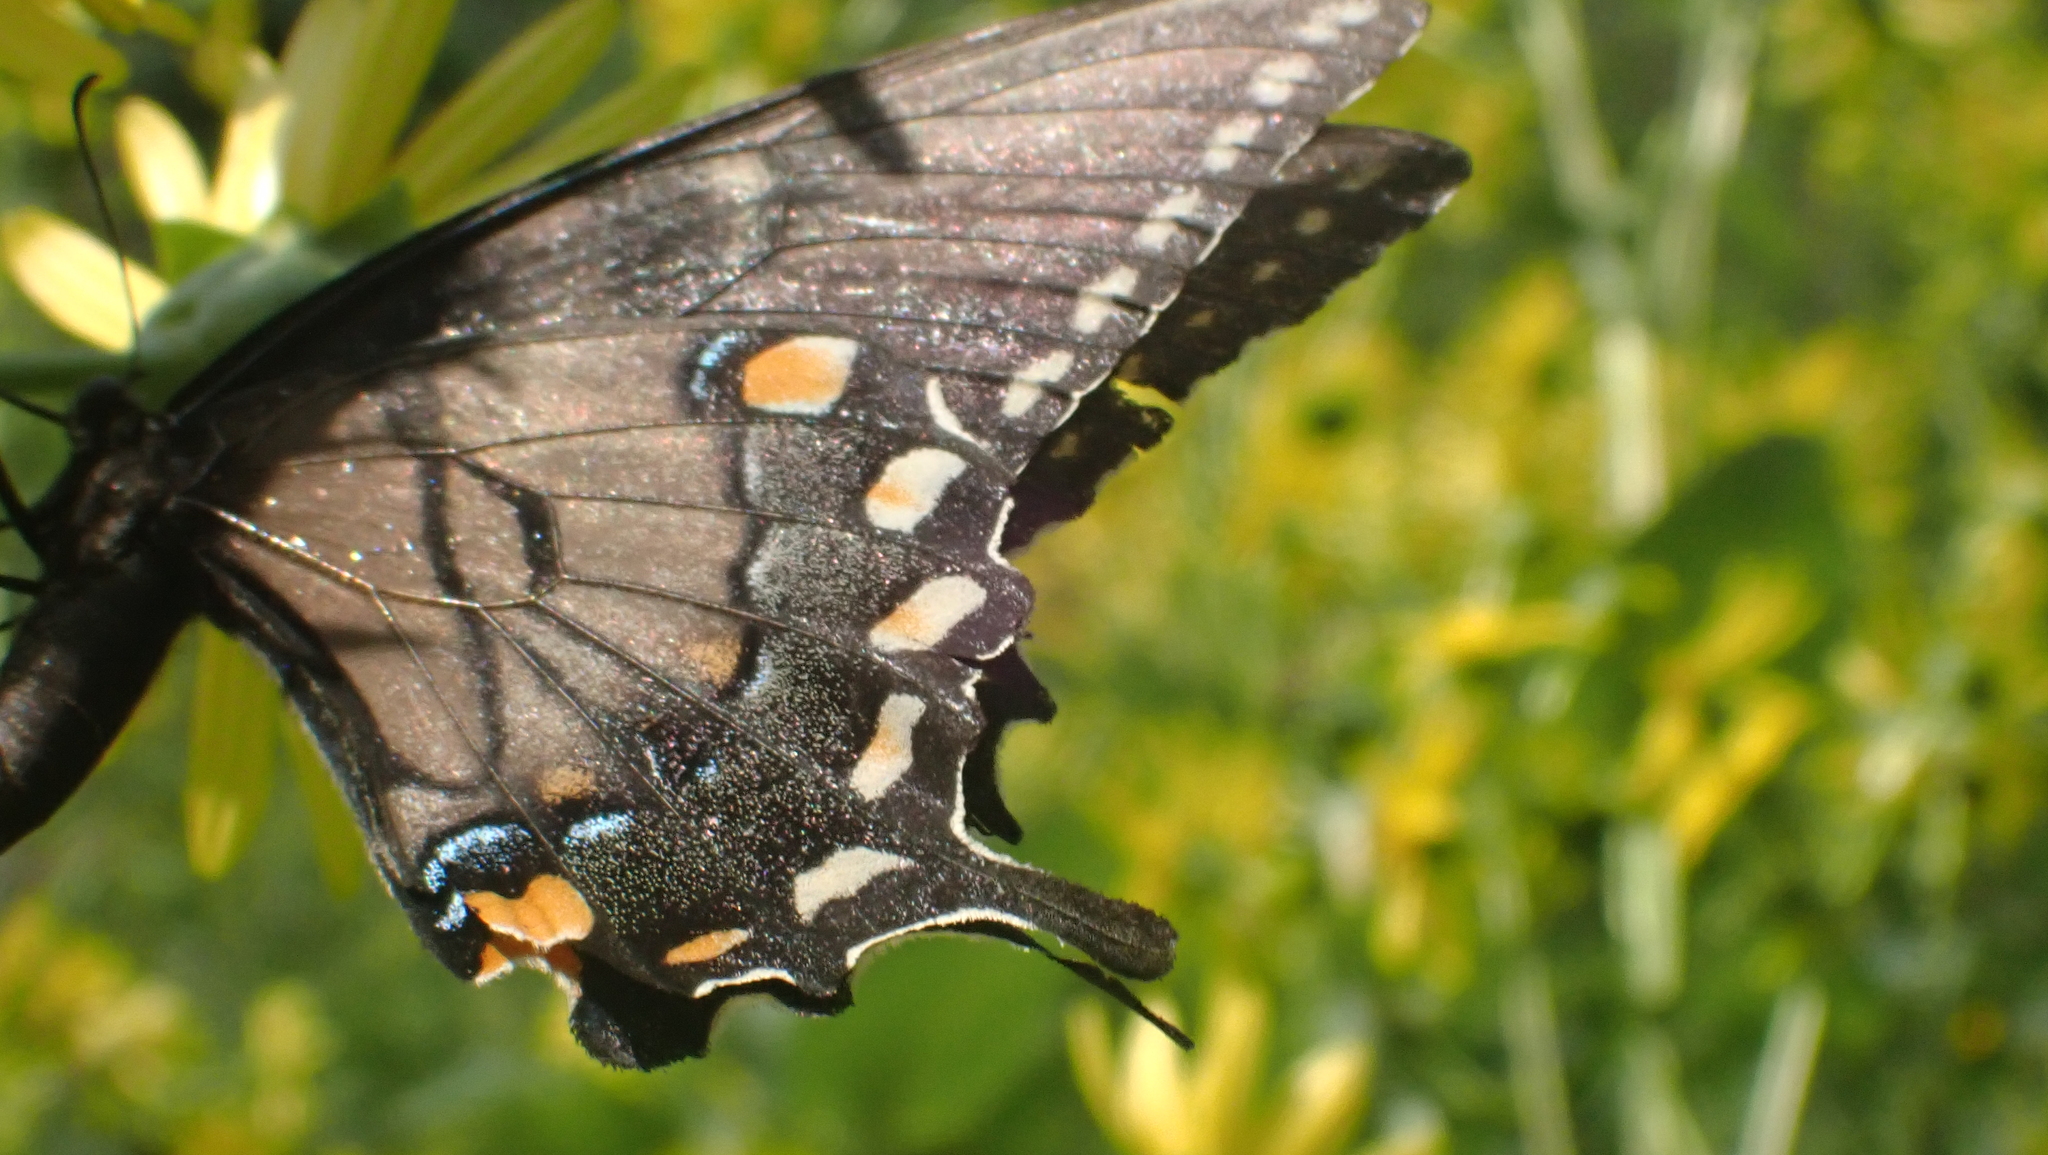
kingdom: Animalia
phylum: Arthropoda
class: Insecta
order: Lepidoptera
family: Papilionidae
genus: Papilio
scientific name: Papilio glaucus
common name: Tiger swallowtail
